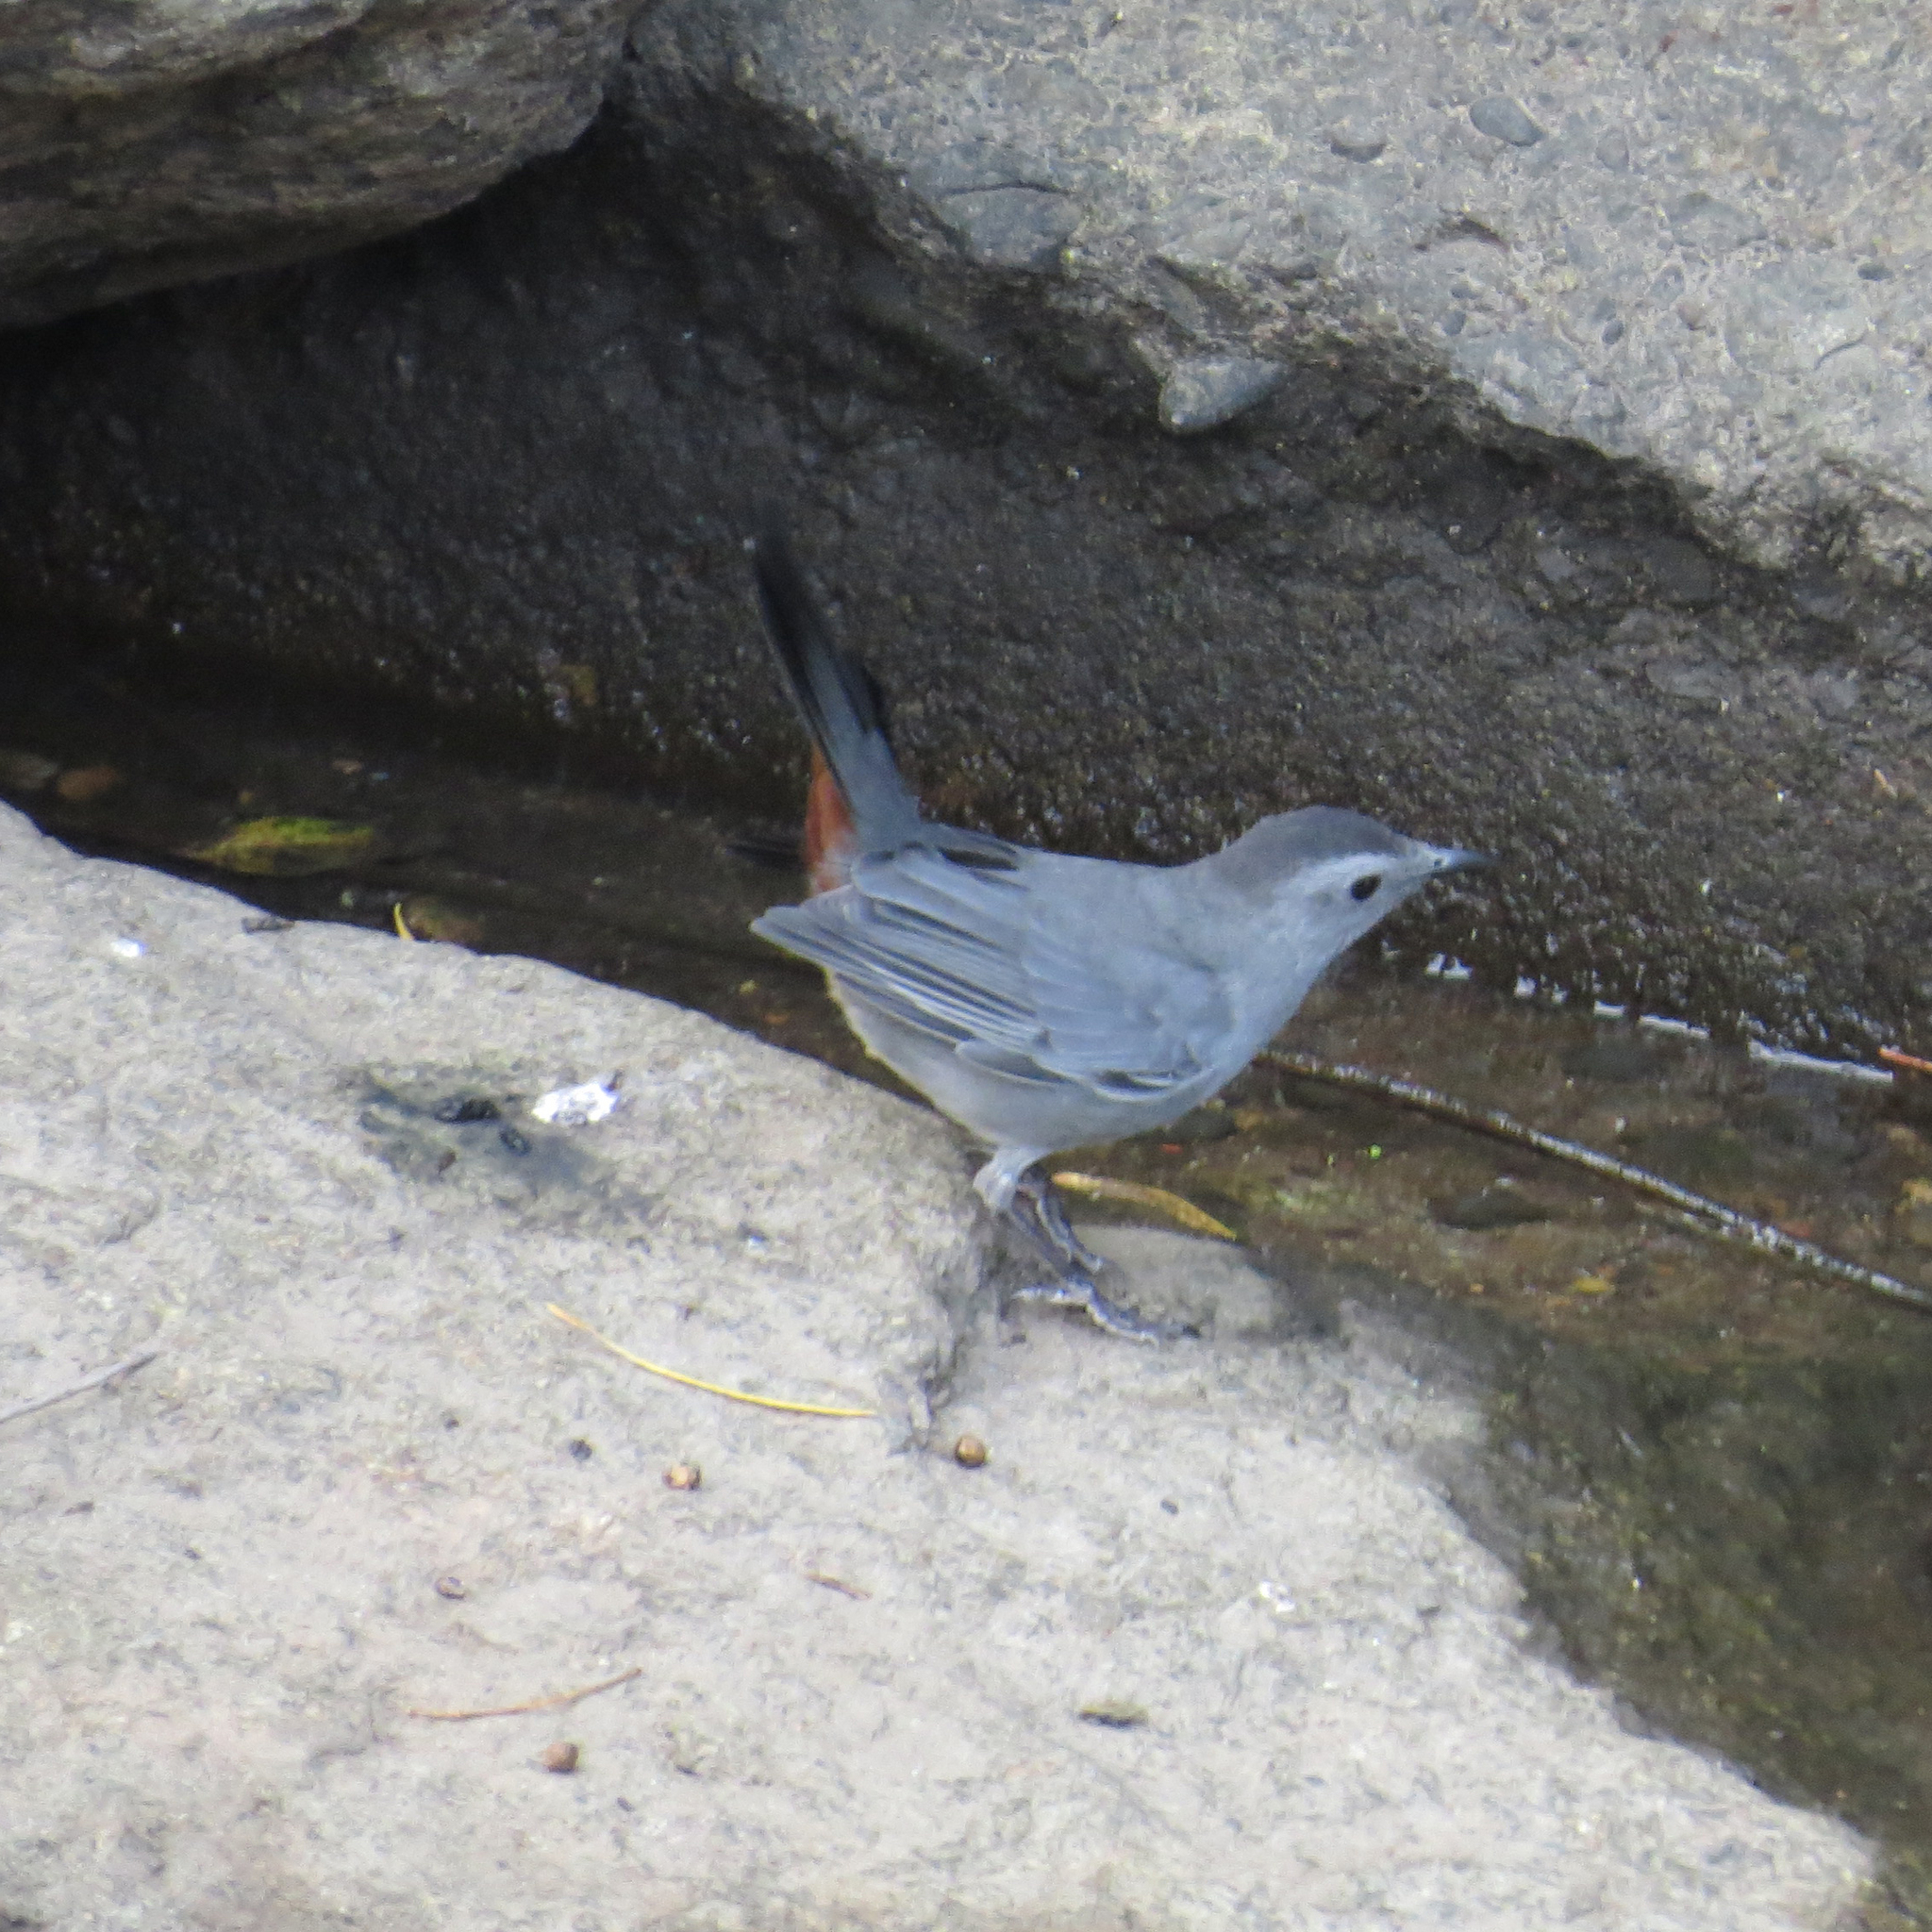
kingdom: Animalia
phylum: Chordata
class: Aves
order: Passeriformes
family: Mimidae
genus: Dumetella
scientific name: Dumetella carolinensis
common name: Gray catbird
